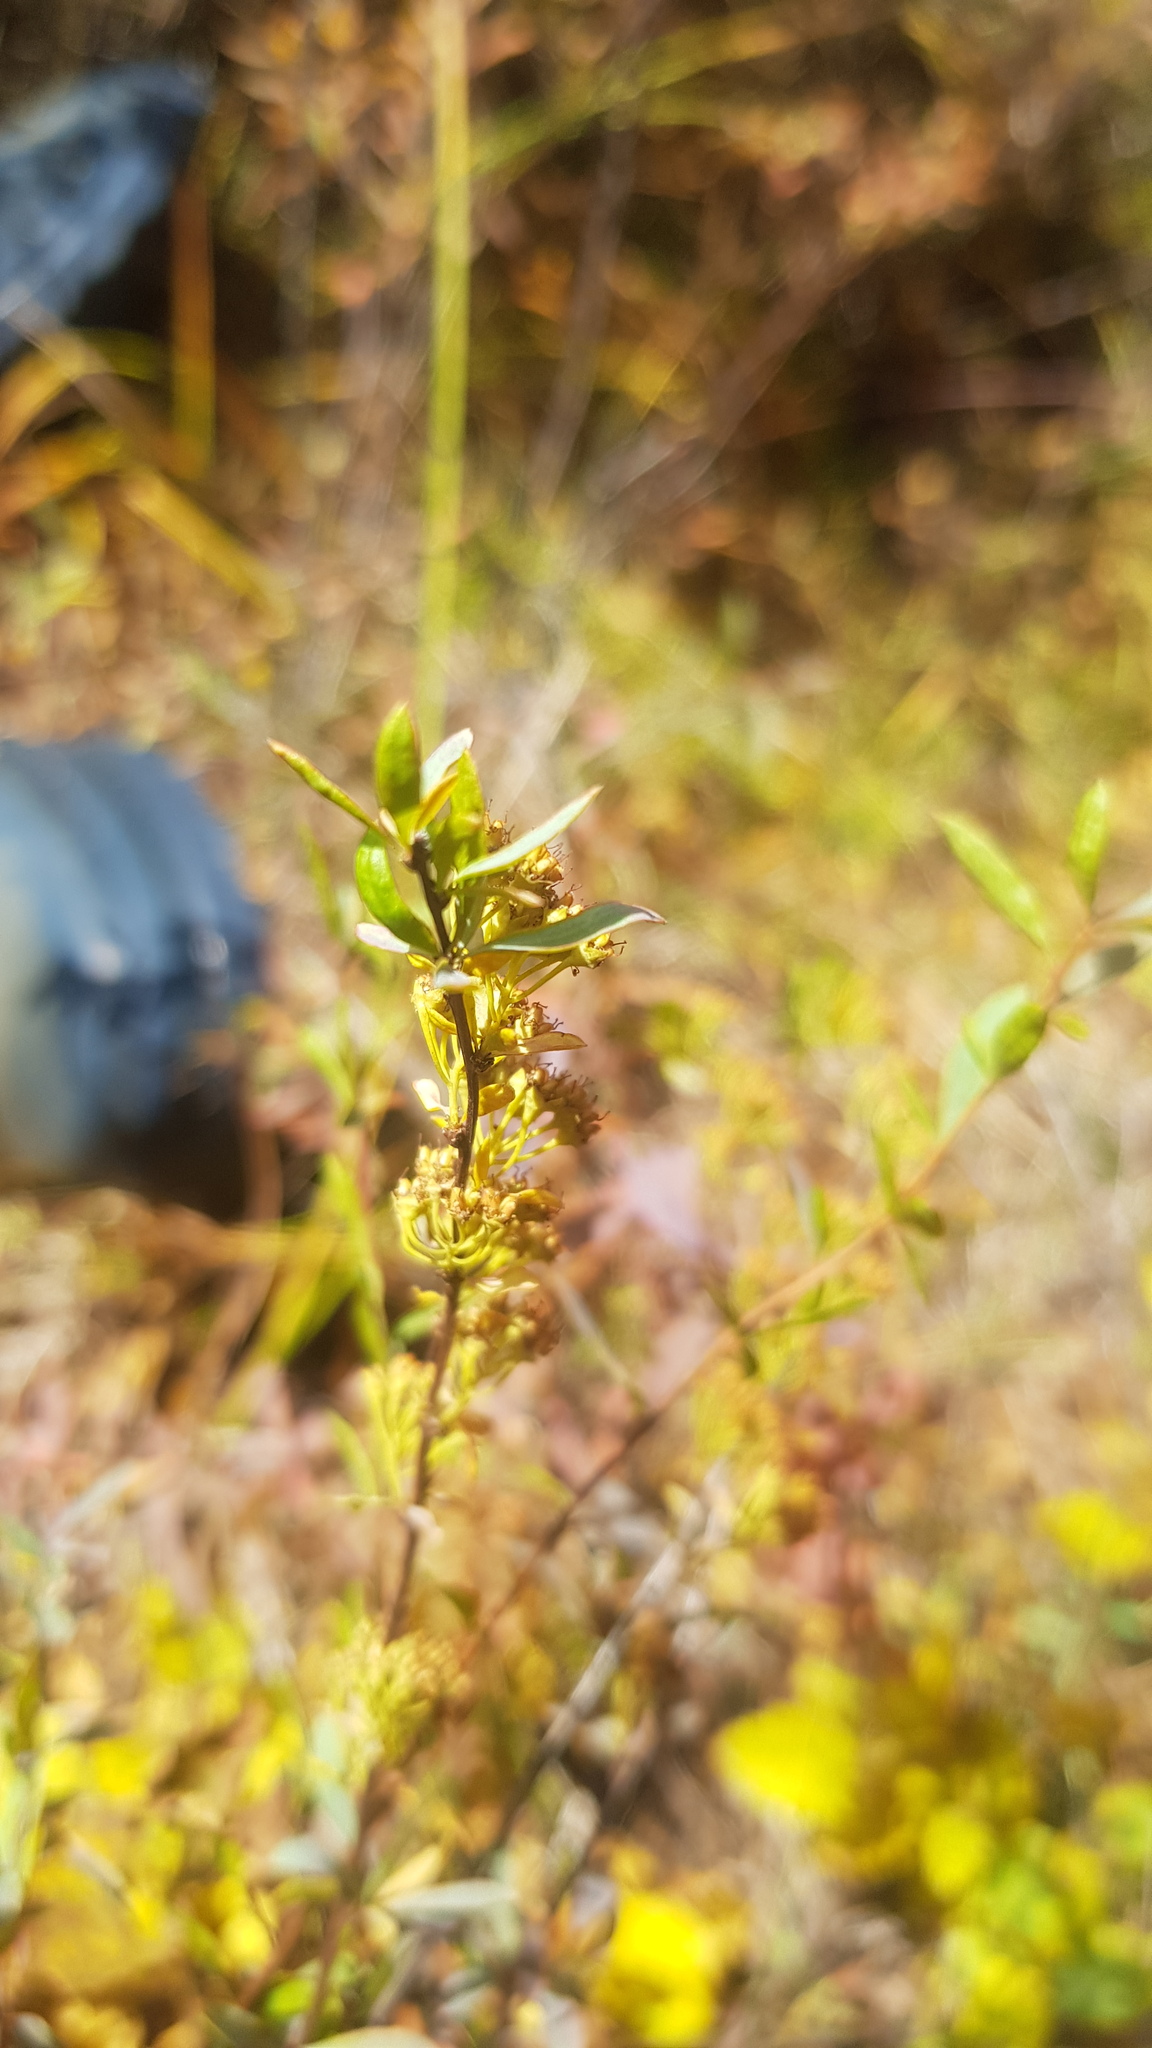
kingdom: Plantae
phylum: Tracheophyta
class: Magnoliopsida
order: Rosales
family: Rosaceae
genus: Spiraea
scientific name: Spiraea alpina
